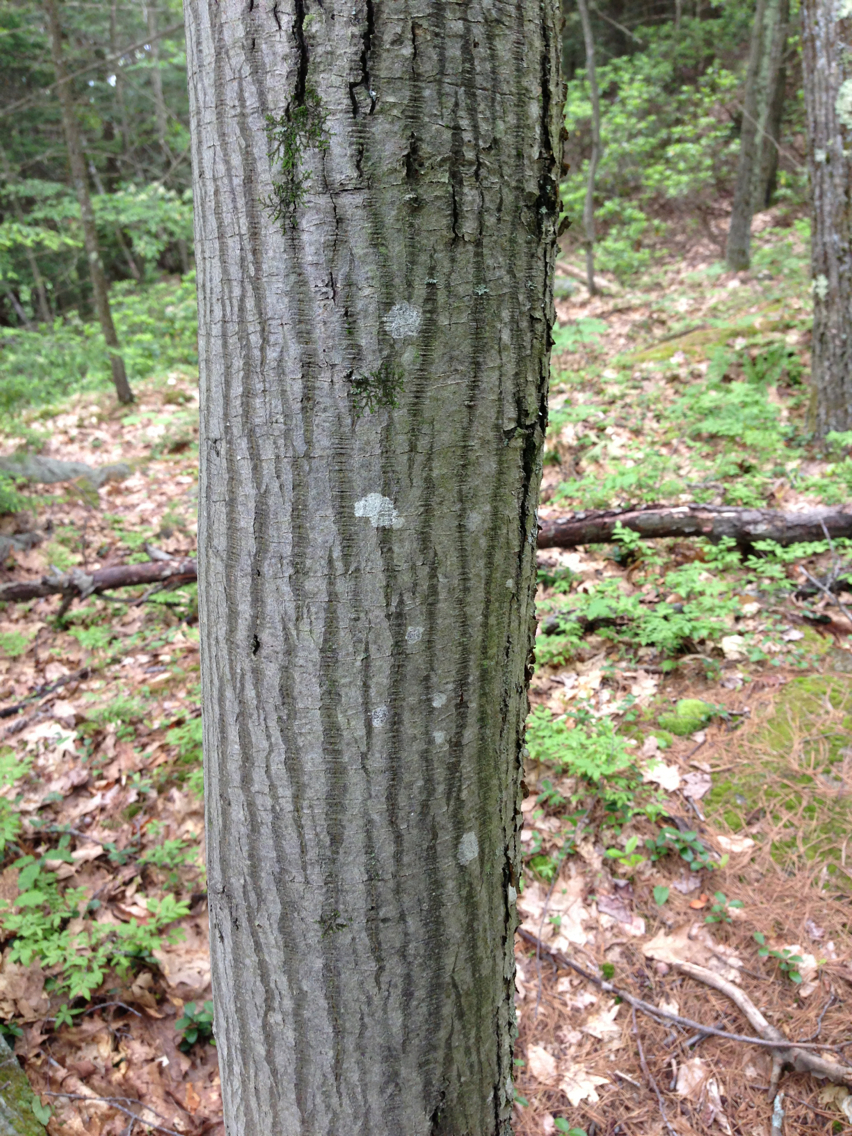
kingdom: Plantae
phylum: Tracheophyta
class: Magnoliopsida
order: Rosales
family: Rosaceae
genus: Amelanchier
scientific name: Amelanchier arborea
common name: Downy serviceberry
